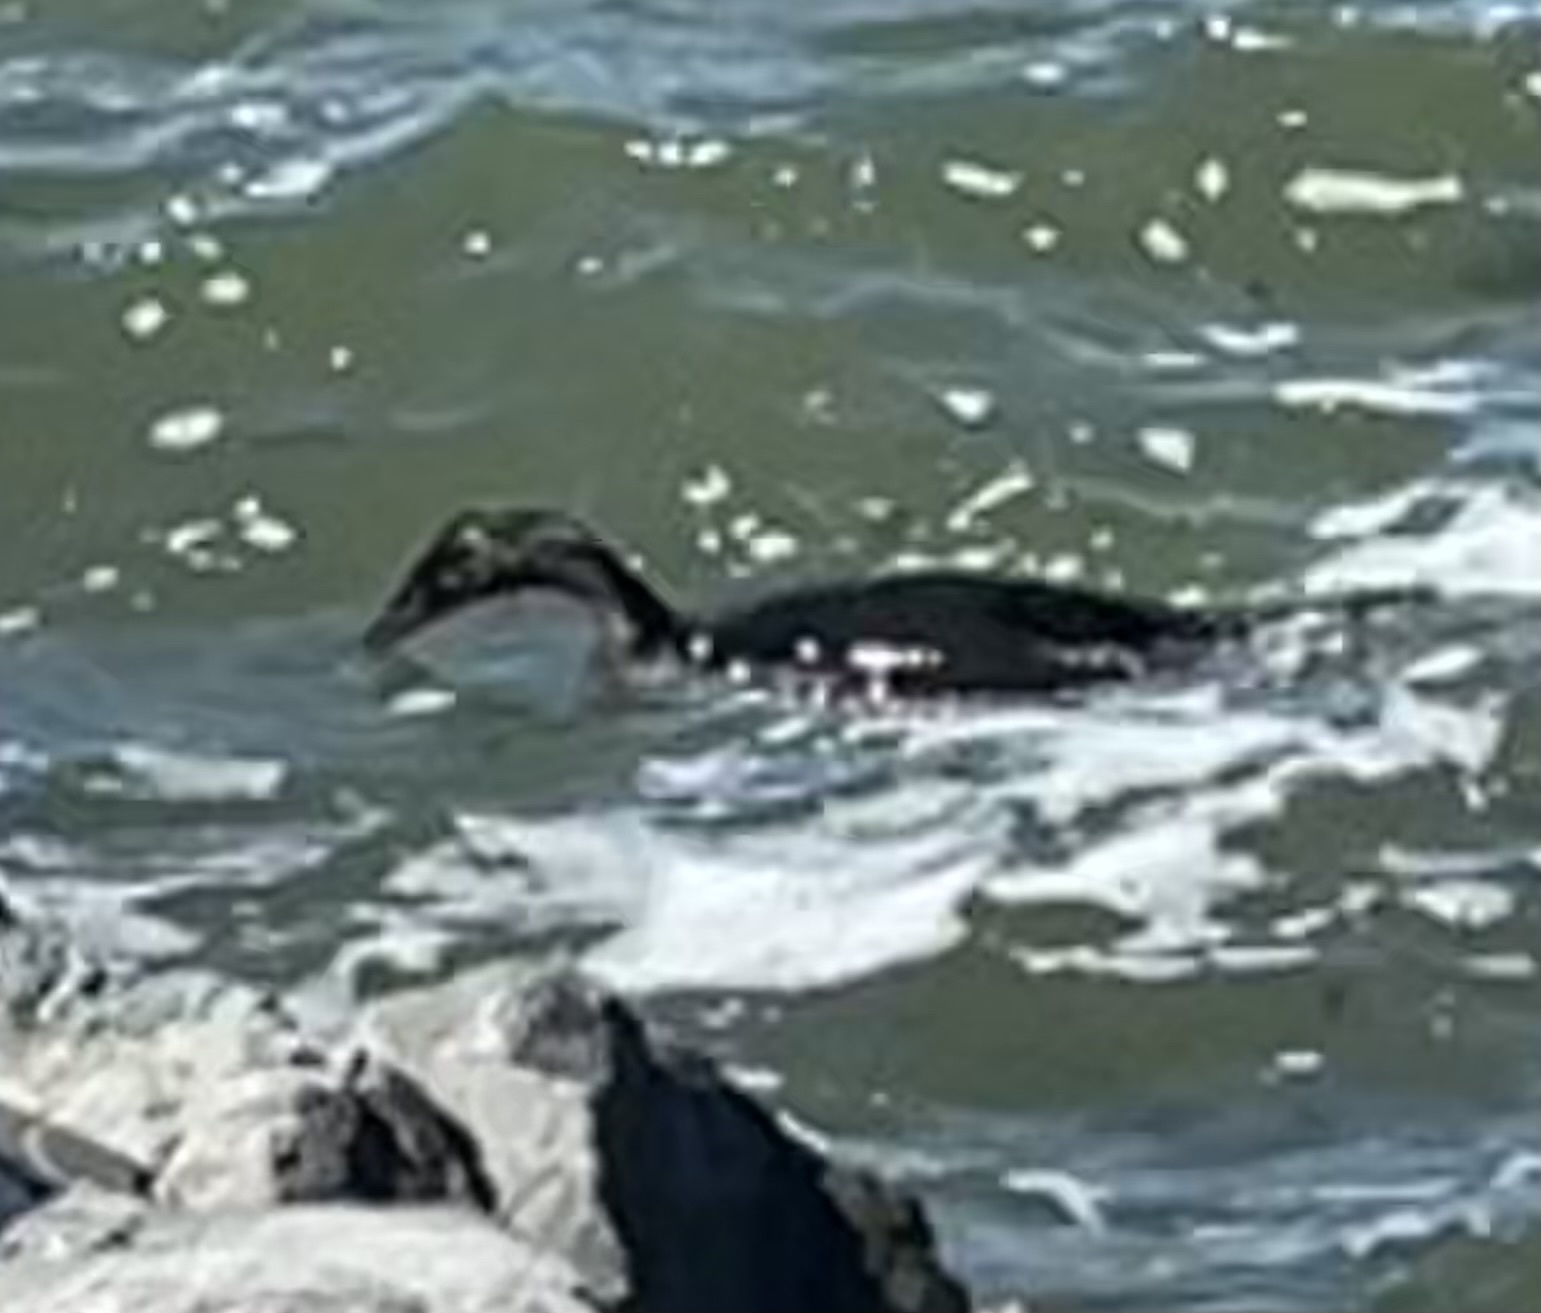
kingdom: Animalia
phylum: Chordata
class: Aves
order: Suliformes
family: Phalacrocoracidae
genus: Phalacrocorax
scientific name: Phalacrocorax auritus
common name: Double-crested cormorant
